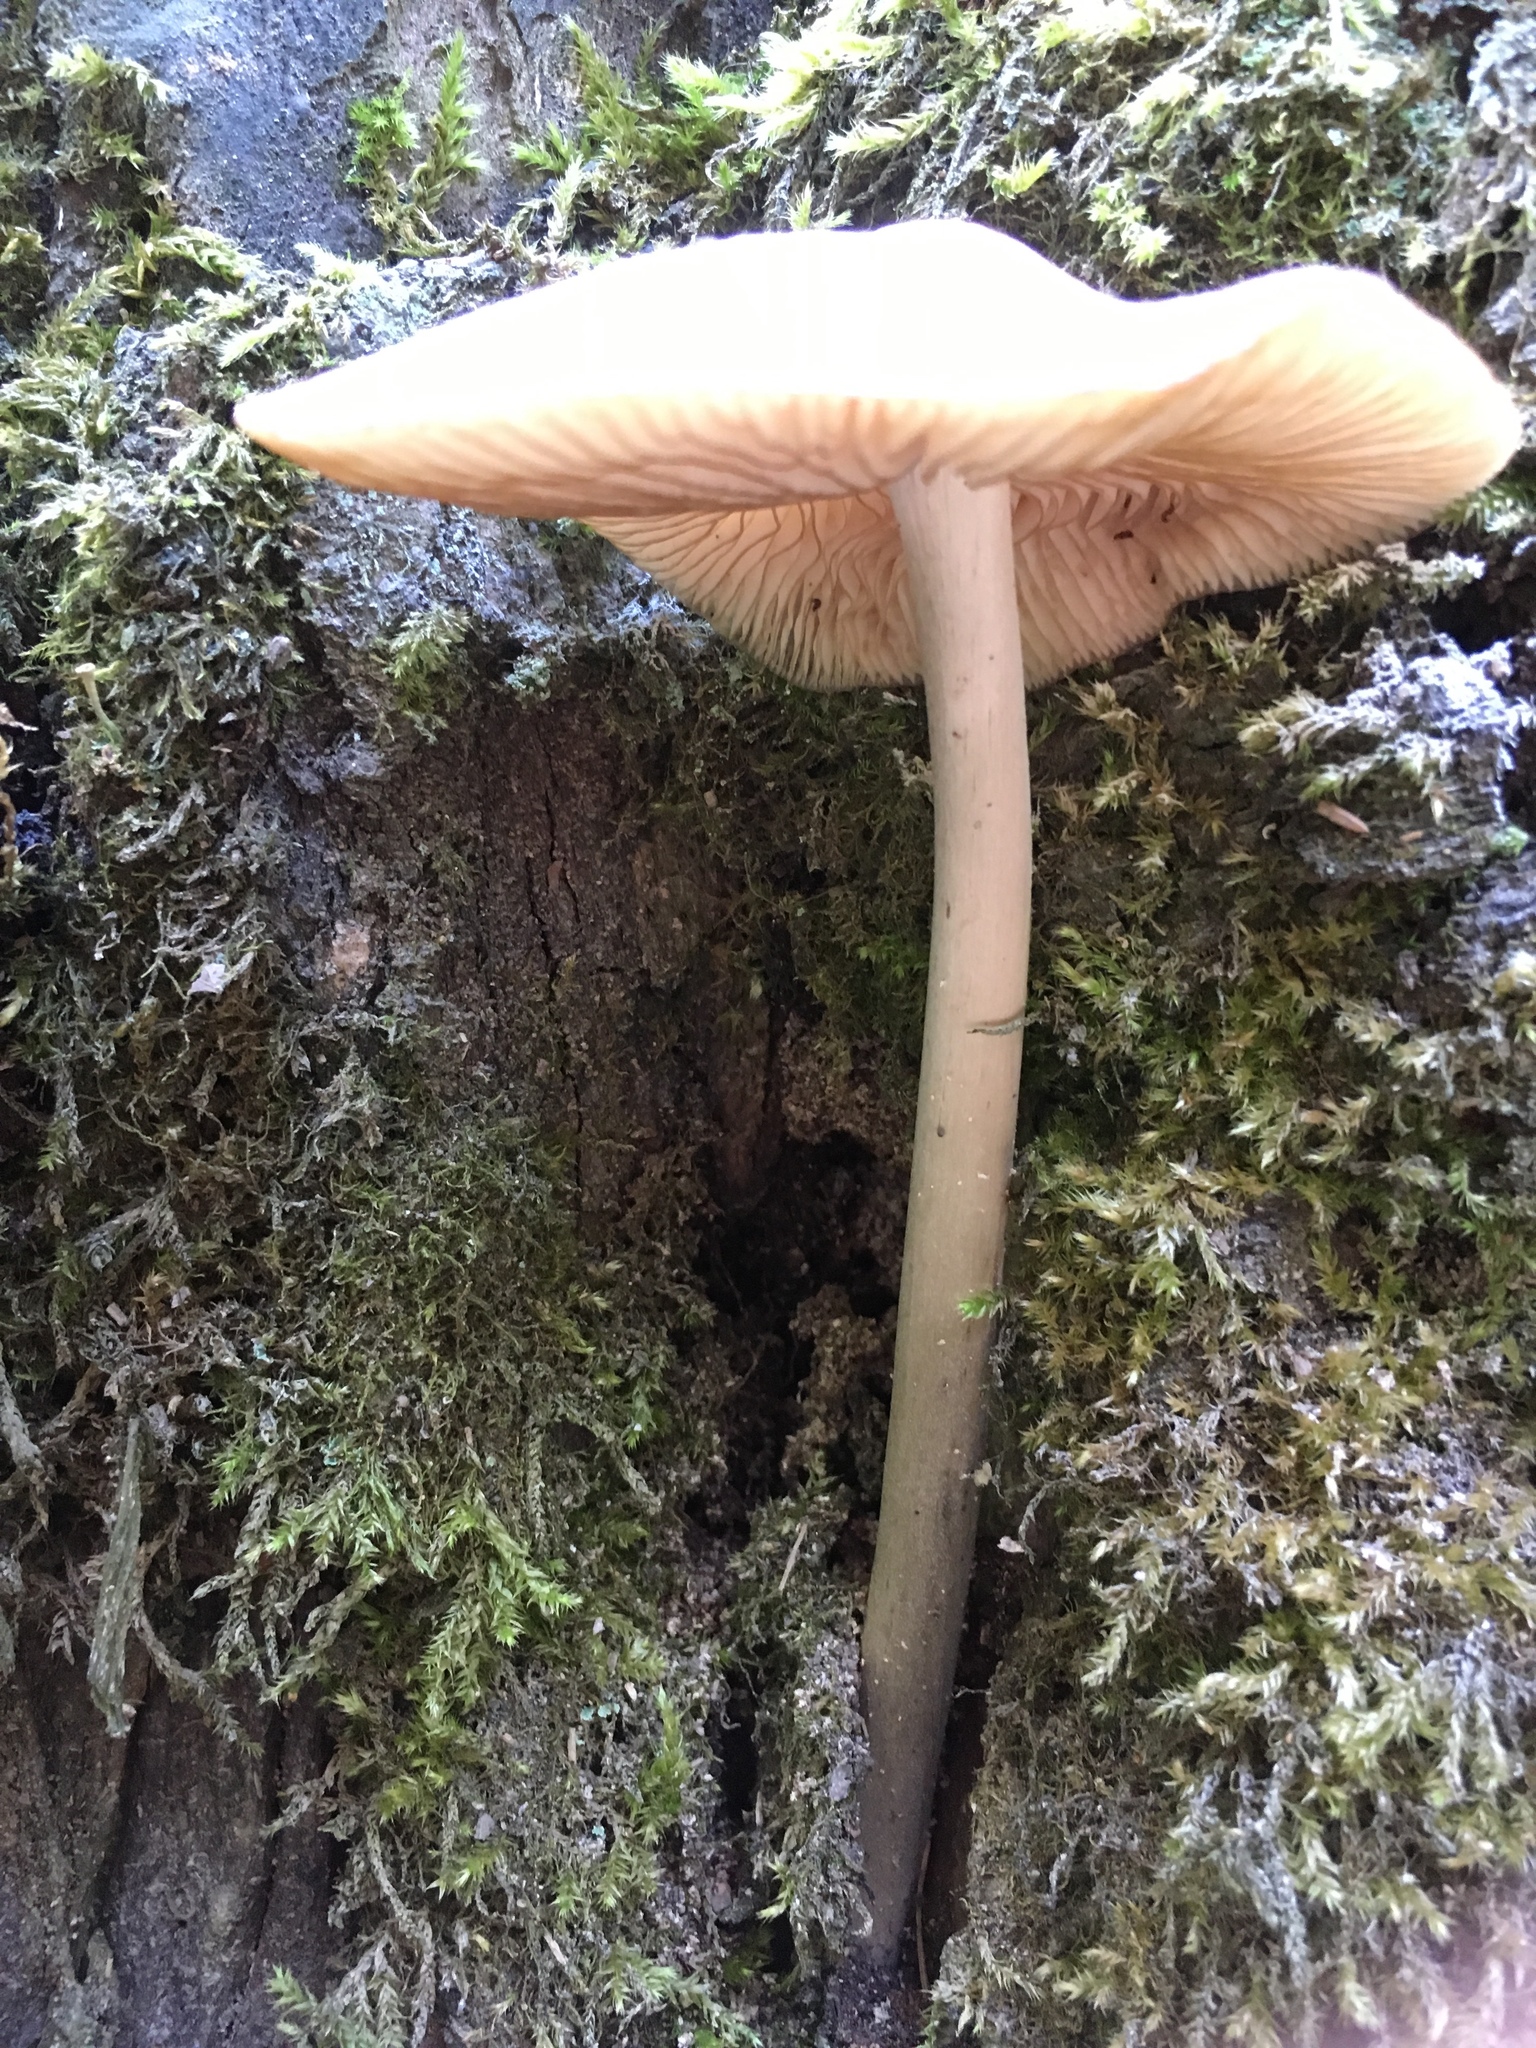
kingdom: Fungi
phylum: Basidiomycota
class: Agaricomycetes
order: Agaricales
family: Physalacriaceae
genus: Hymenopellis
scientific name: Hymenopellis radicata
